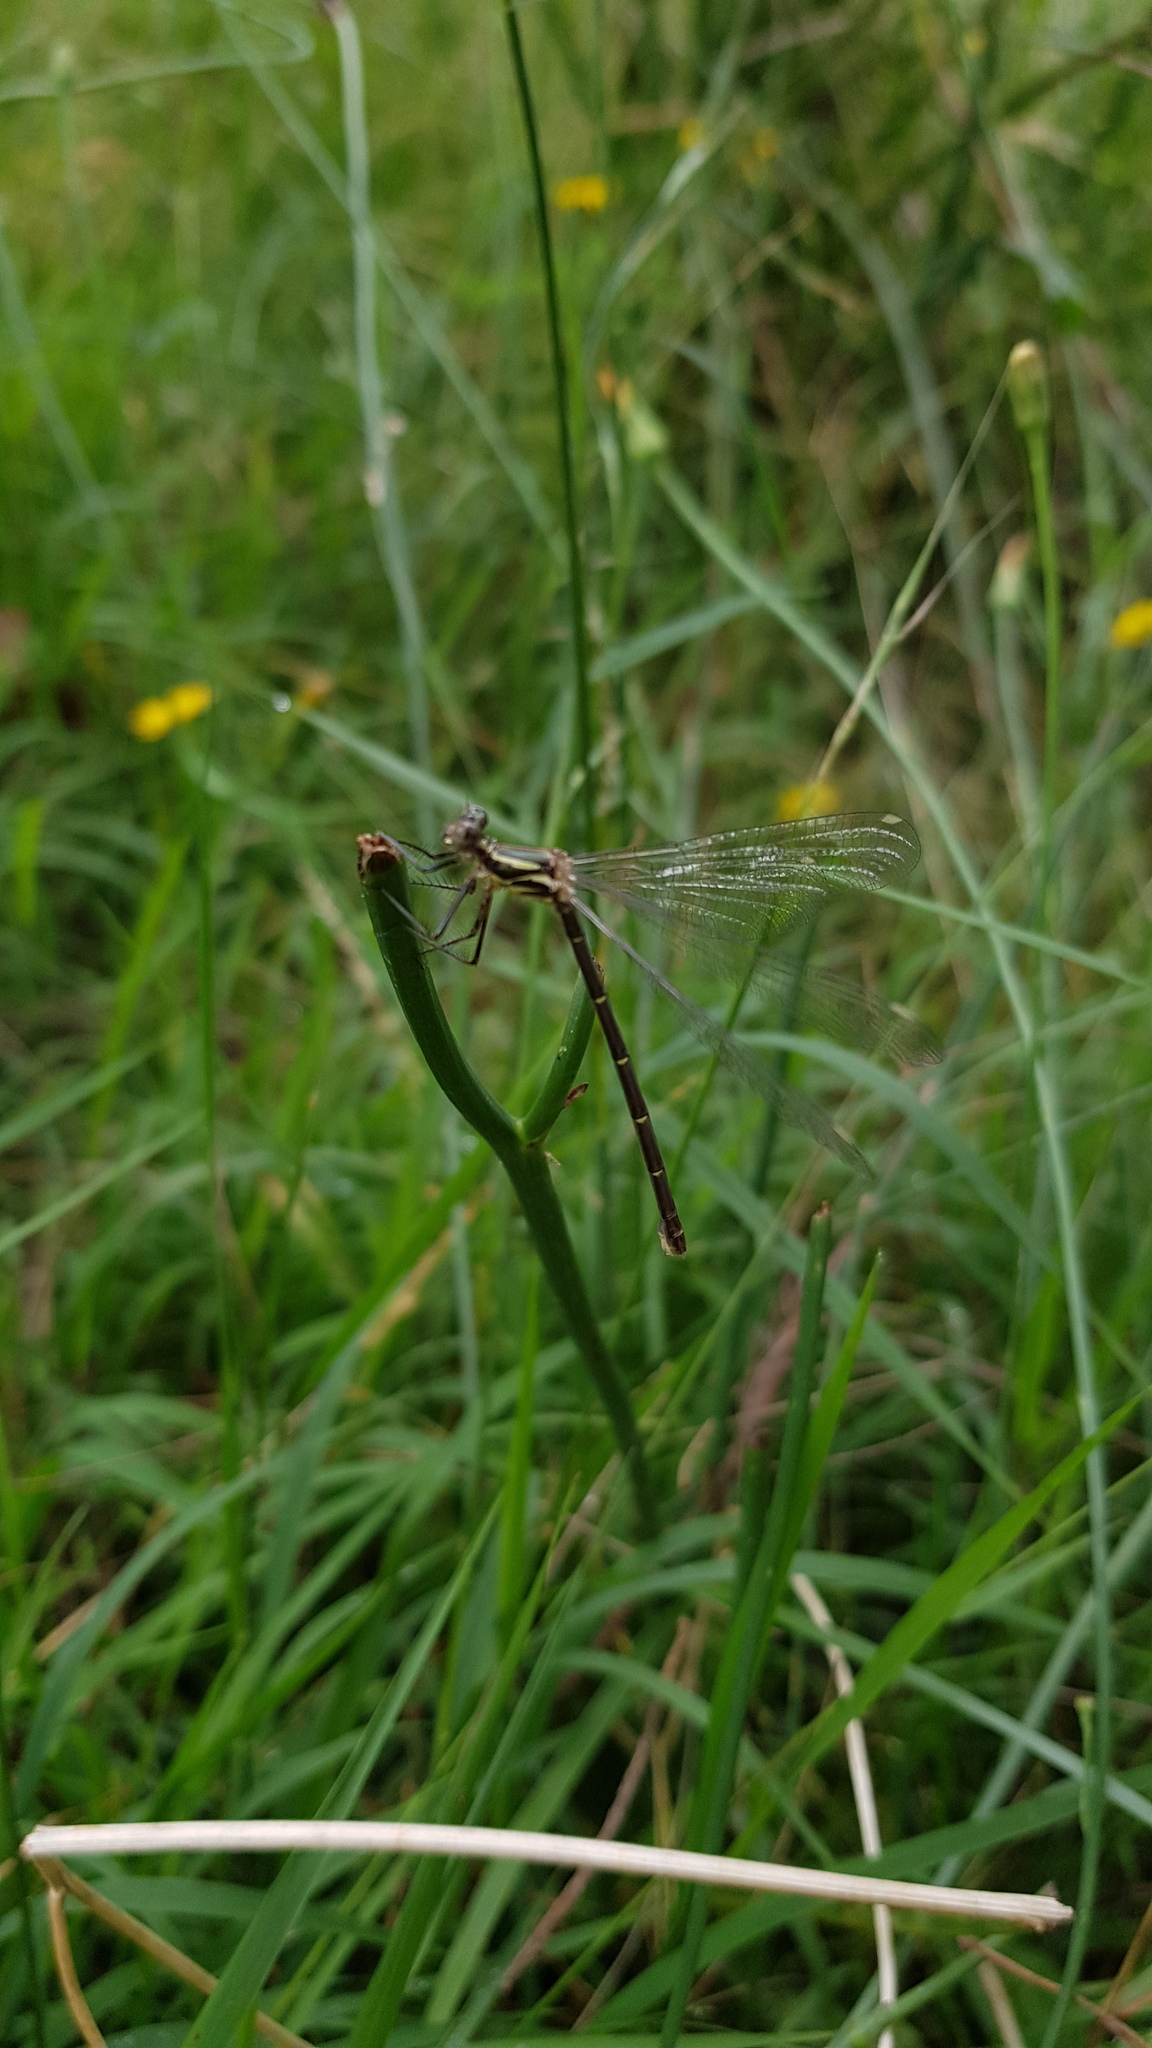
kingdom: Animalia
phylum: Arthropoda
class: Insecta
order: Odonata
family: Argiolestidae
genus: Austroargiolestes
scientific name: Austroargiolestes icteromelas
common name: Common flatwing
